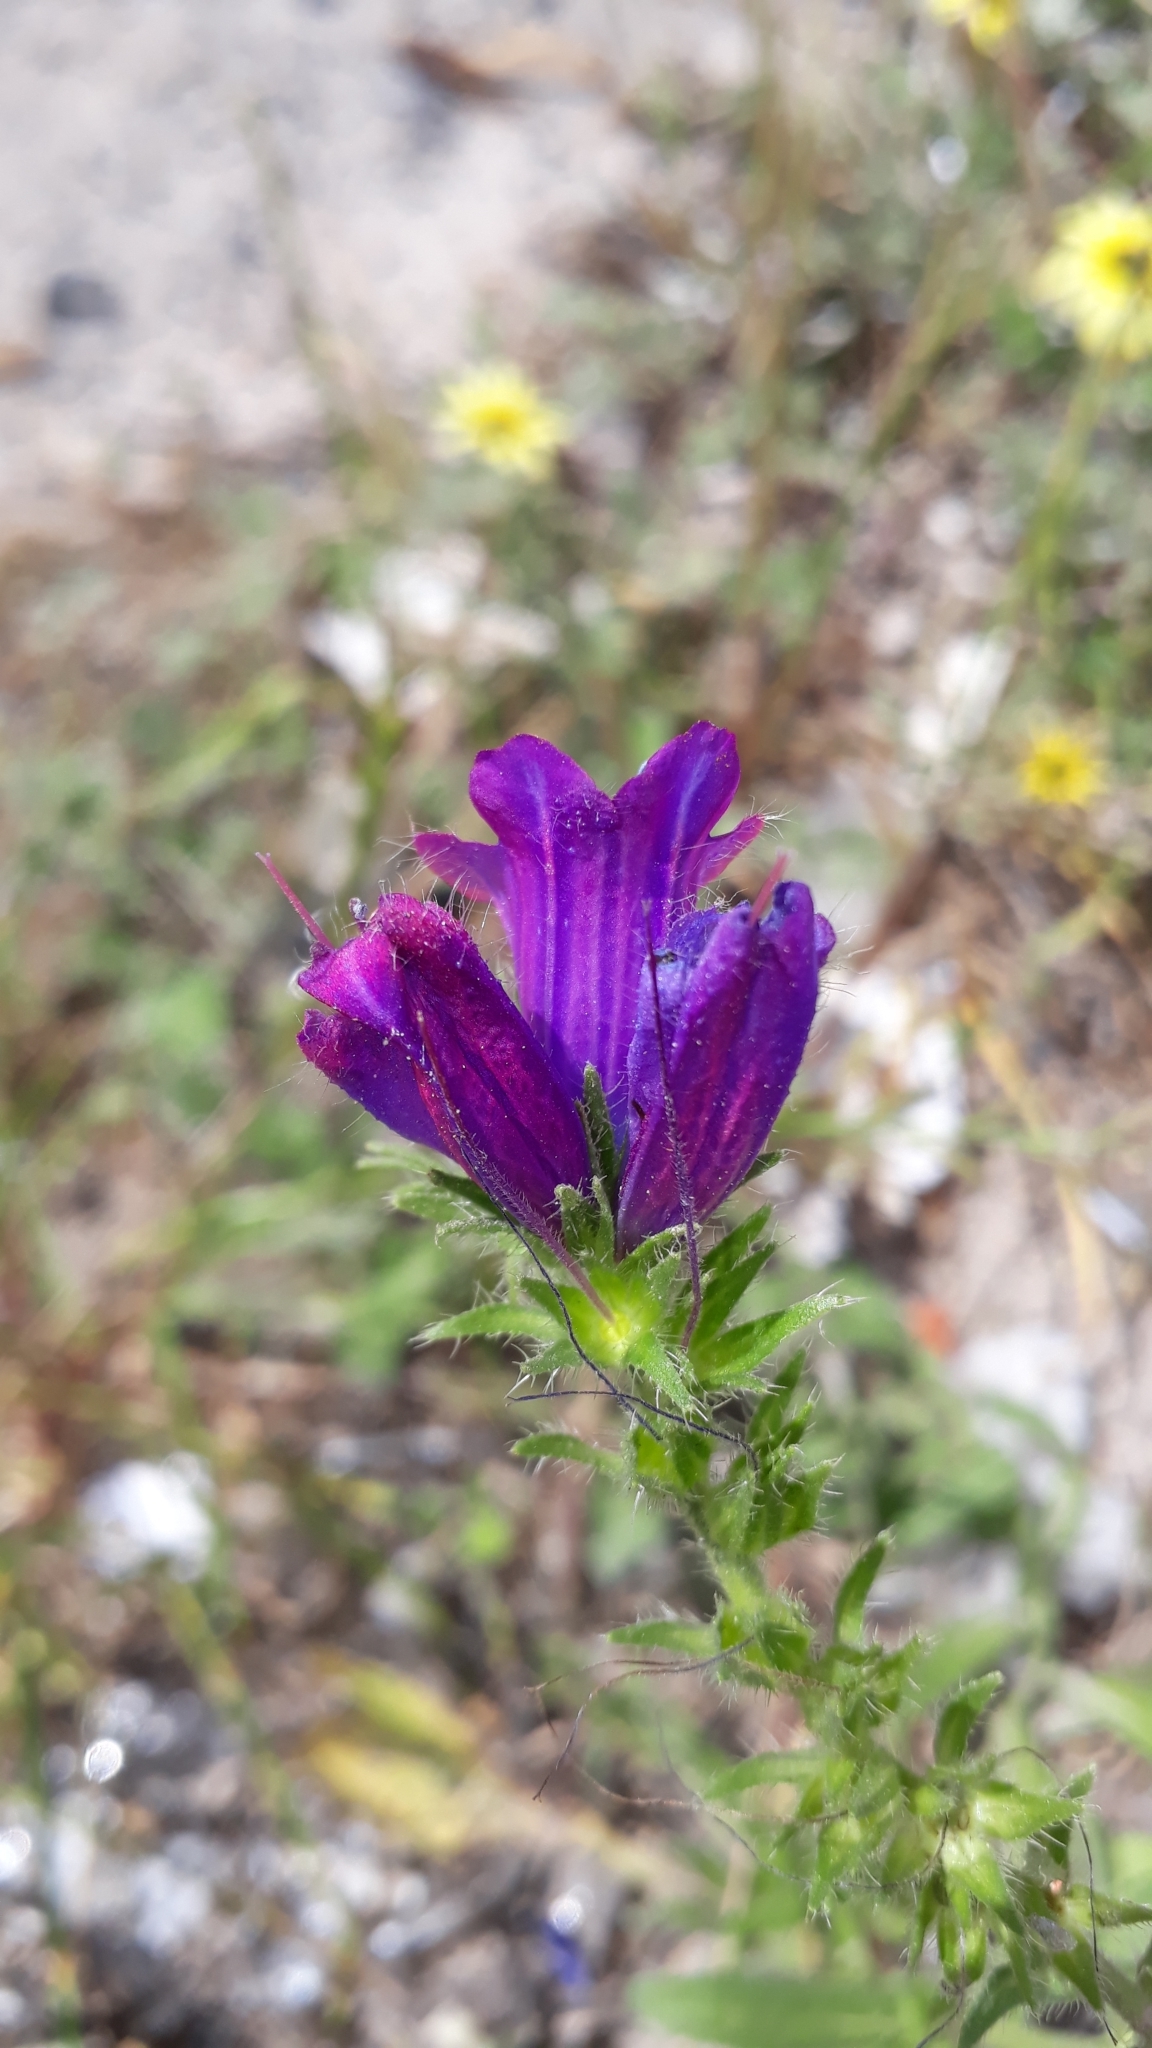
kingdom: Plantae
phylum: Tracheophyta
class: Magnoliopsida
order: Boraginales
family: Boraginaceae
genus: Echium
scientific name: Echium plantagineum
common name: Purple viper's-bugloss
